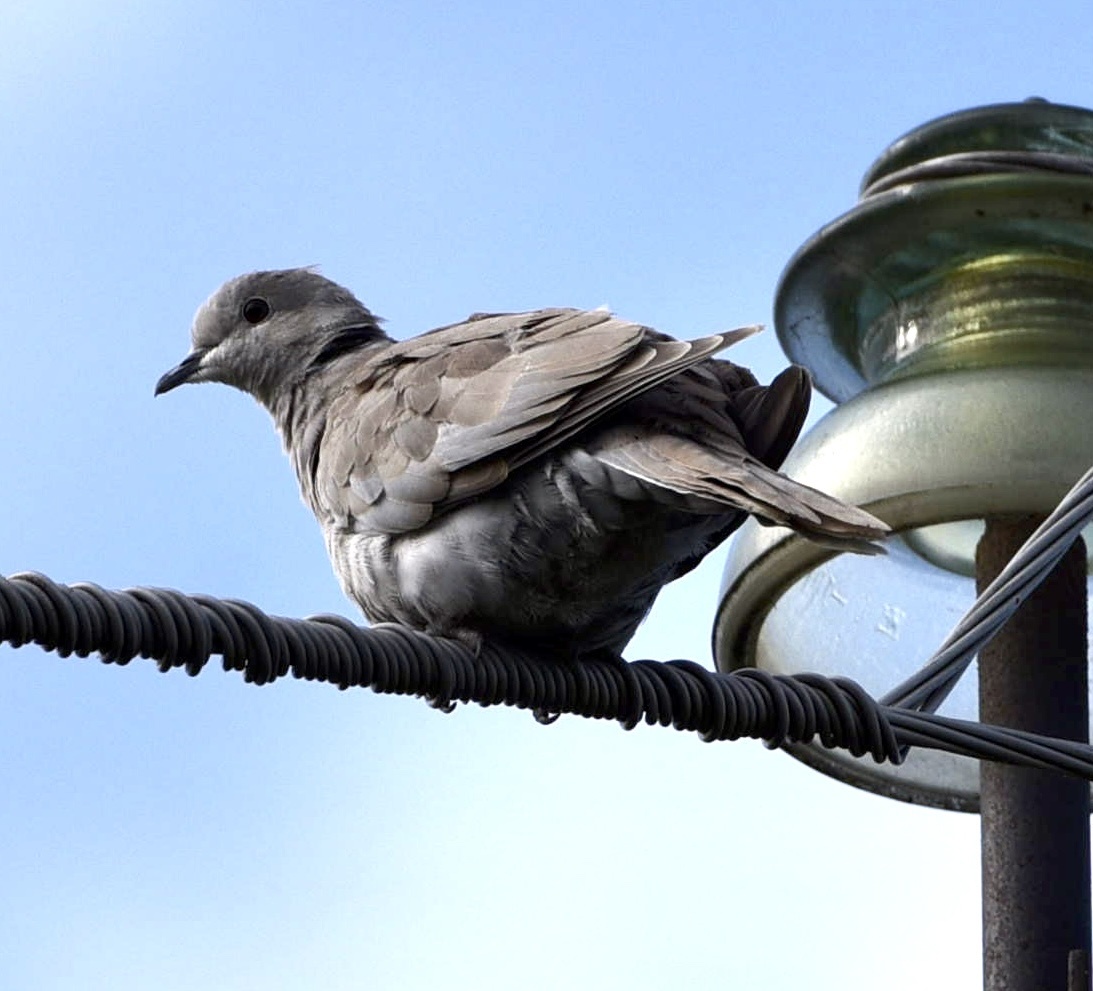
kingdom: Animalia
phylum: Chordata
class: Aves
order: Columbiformes
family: Columbidae
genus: Streptopelia
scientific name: Streptopelia decaocto
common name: Eurasian collared dove
